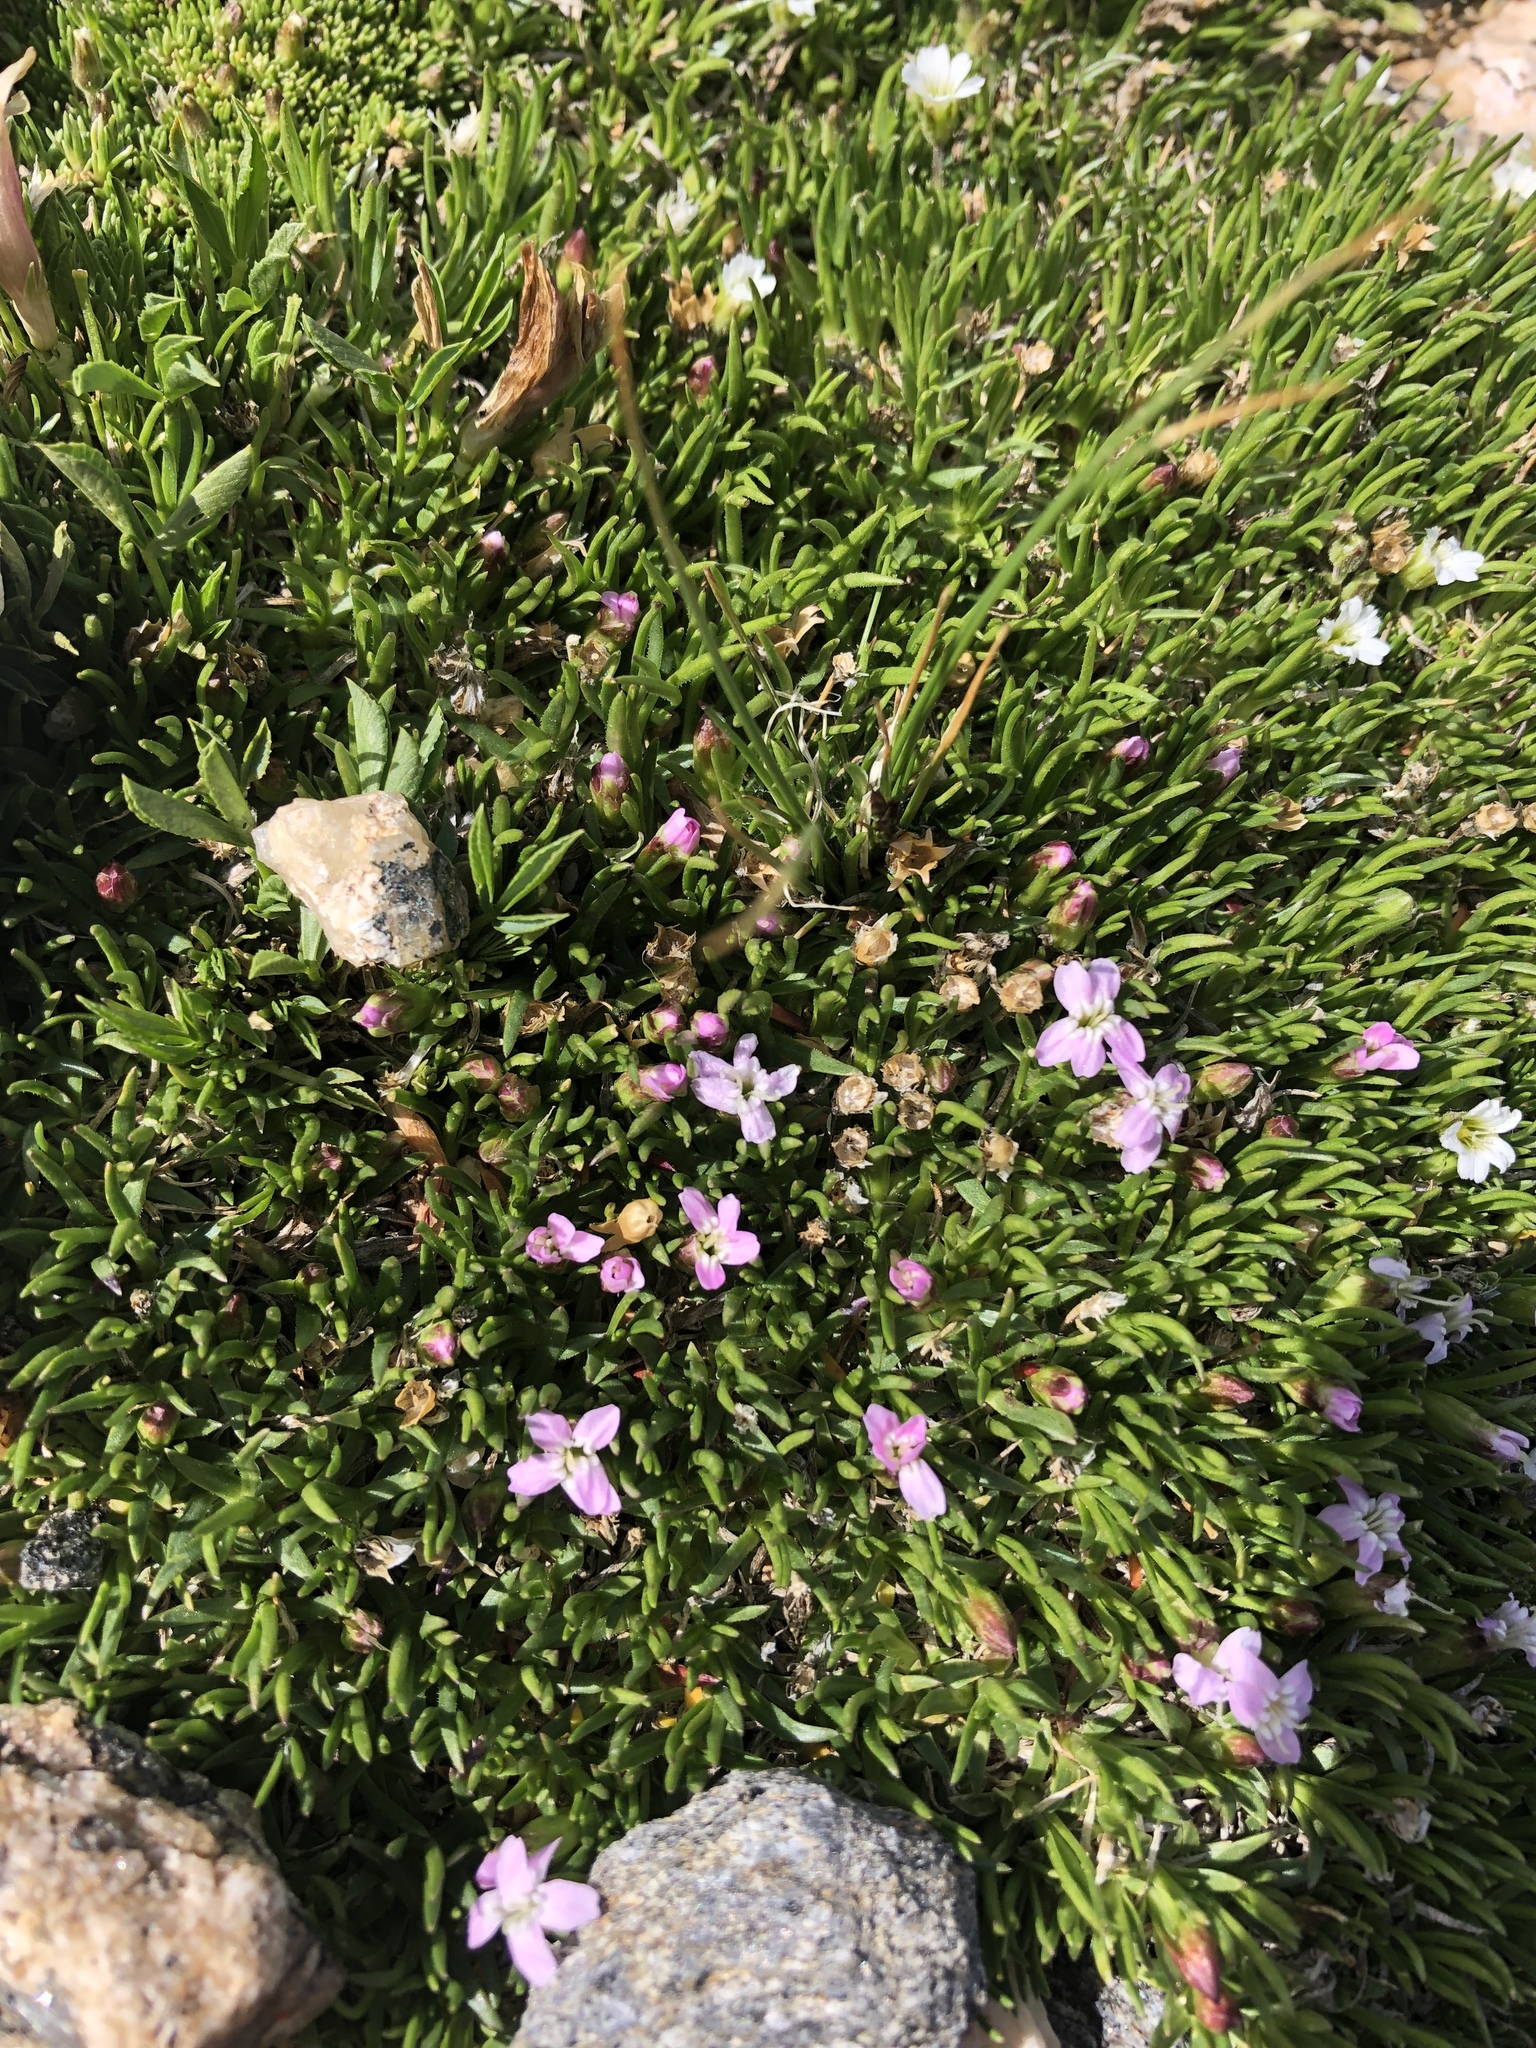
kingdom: Plantae
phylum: Tracheophyta
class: Magnoliopsida
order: Caryophyllales
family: Caryophyllaceae
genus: Silene
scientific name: Silene acaulis
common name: Moss campion
